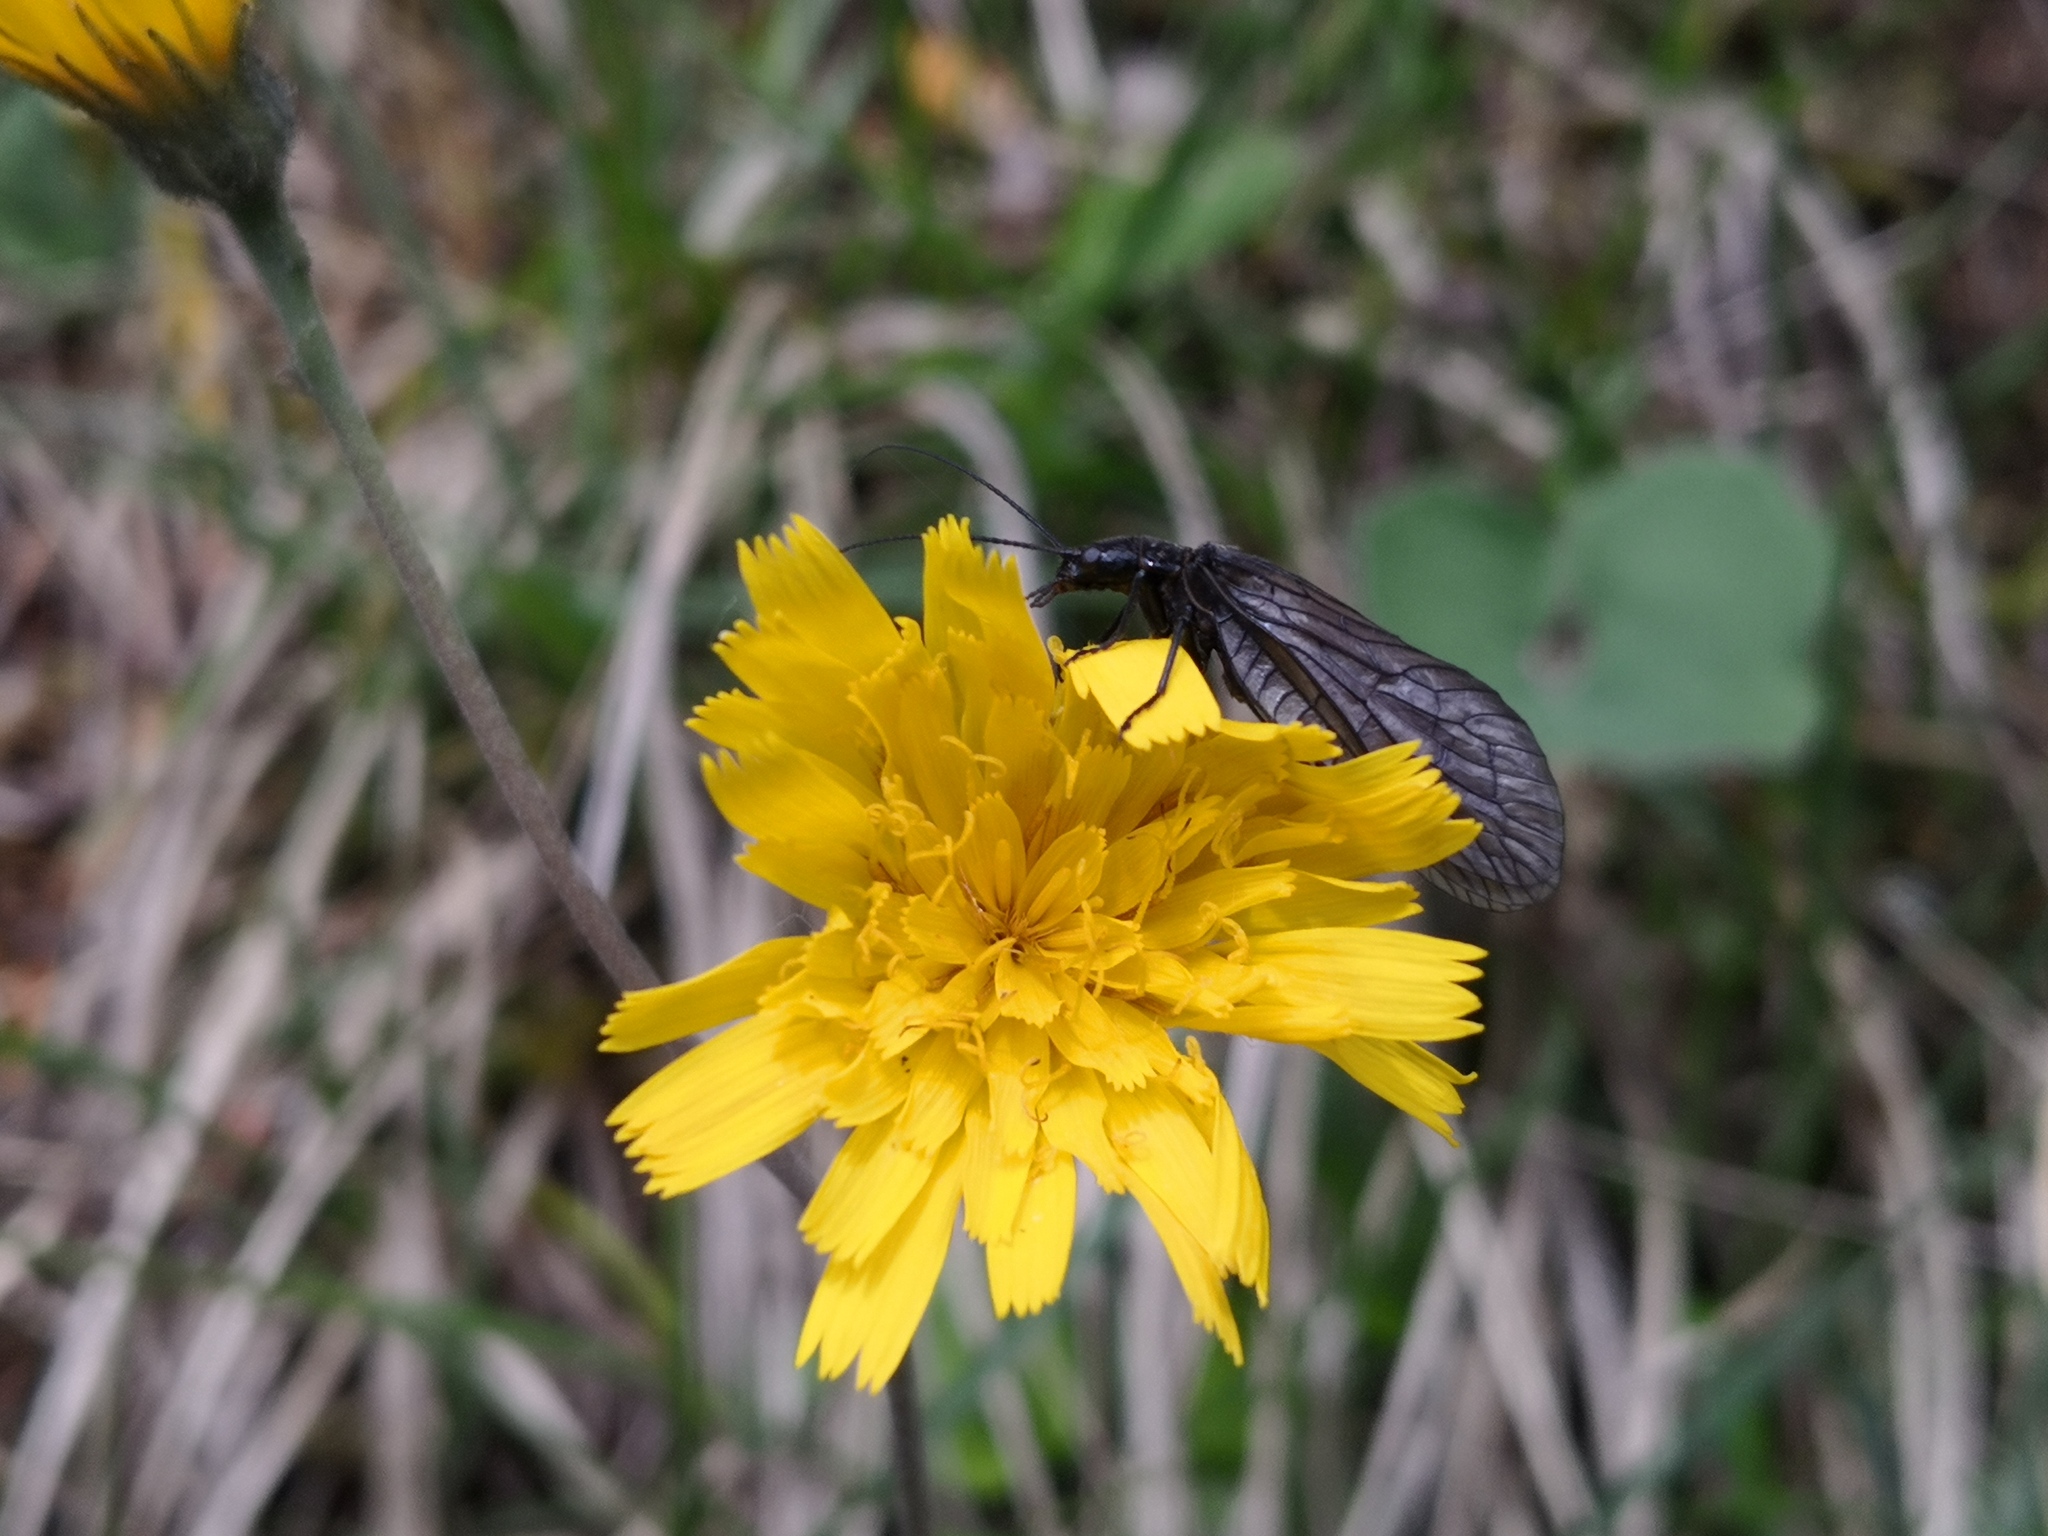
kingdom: Animalia
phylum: Arthropoda
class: Insecta
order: Megaloptera
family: Sialidae
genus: Sialis
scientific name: Sialis
